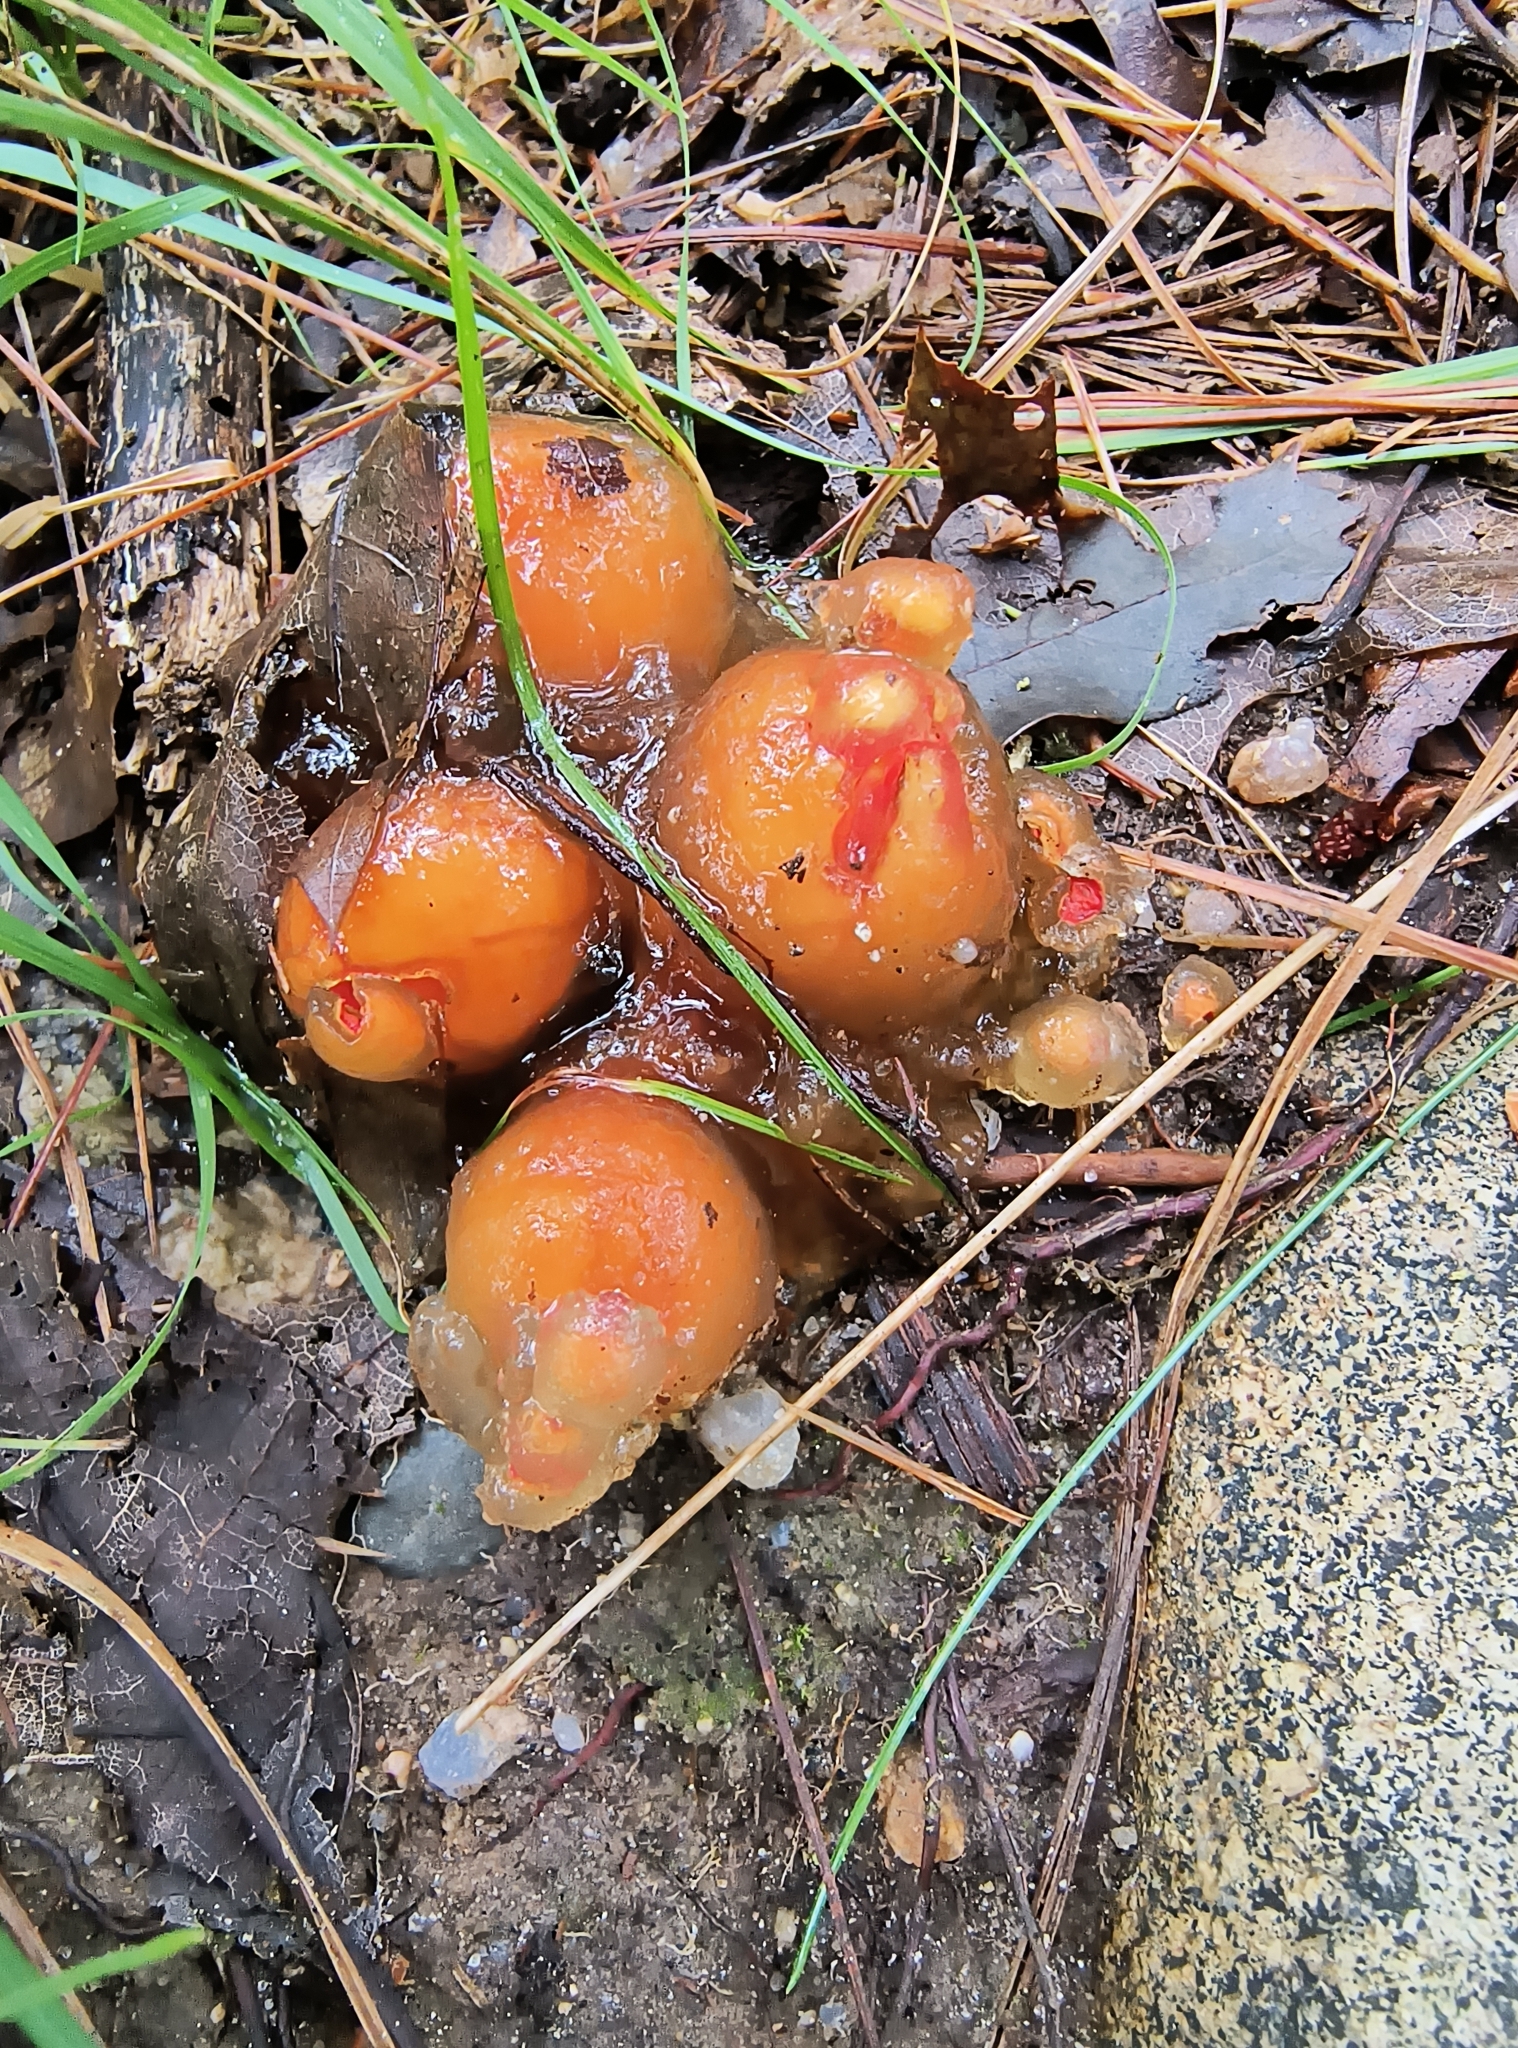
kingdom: Fungi
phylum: Basidiomycota
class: Agaricomycetes
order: Boletales
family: Calostomataceae
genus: Calostoma
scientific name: Calostoma cinnabarinum
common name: Stalked puffball-in-aspic
